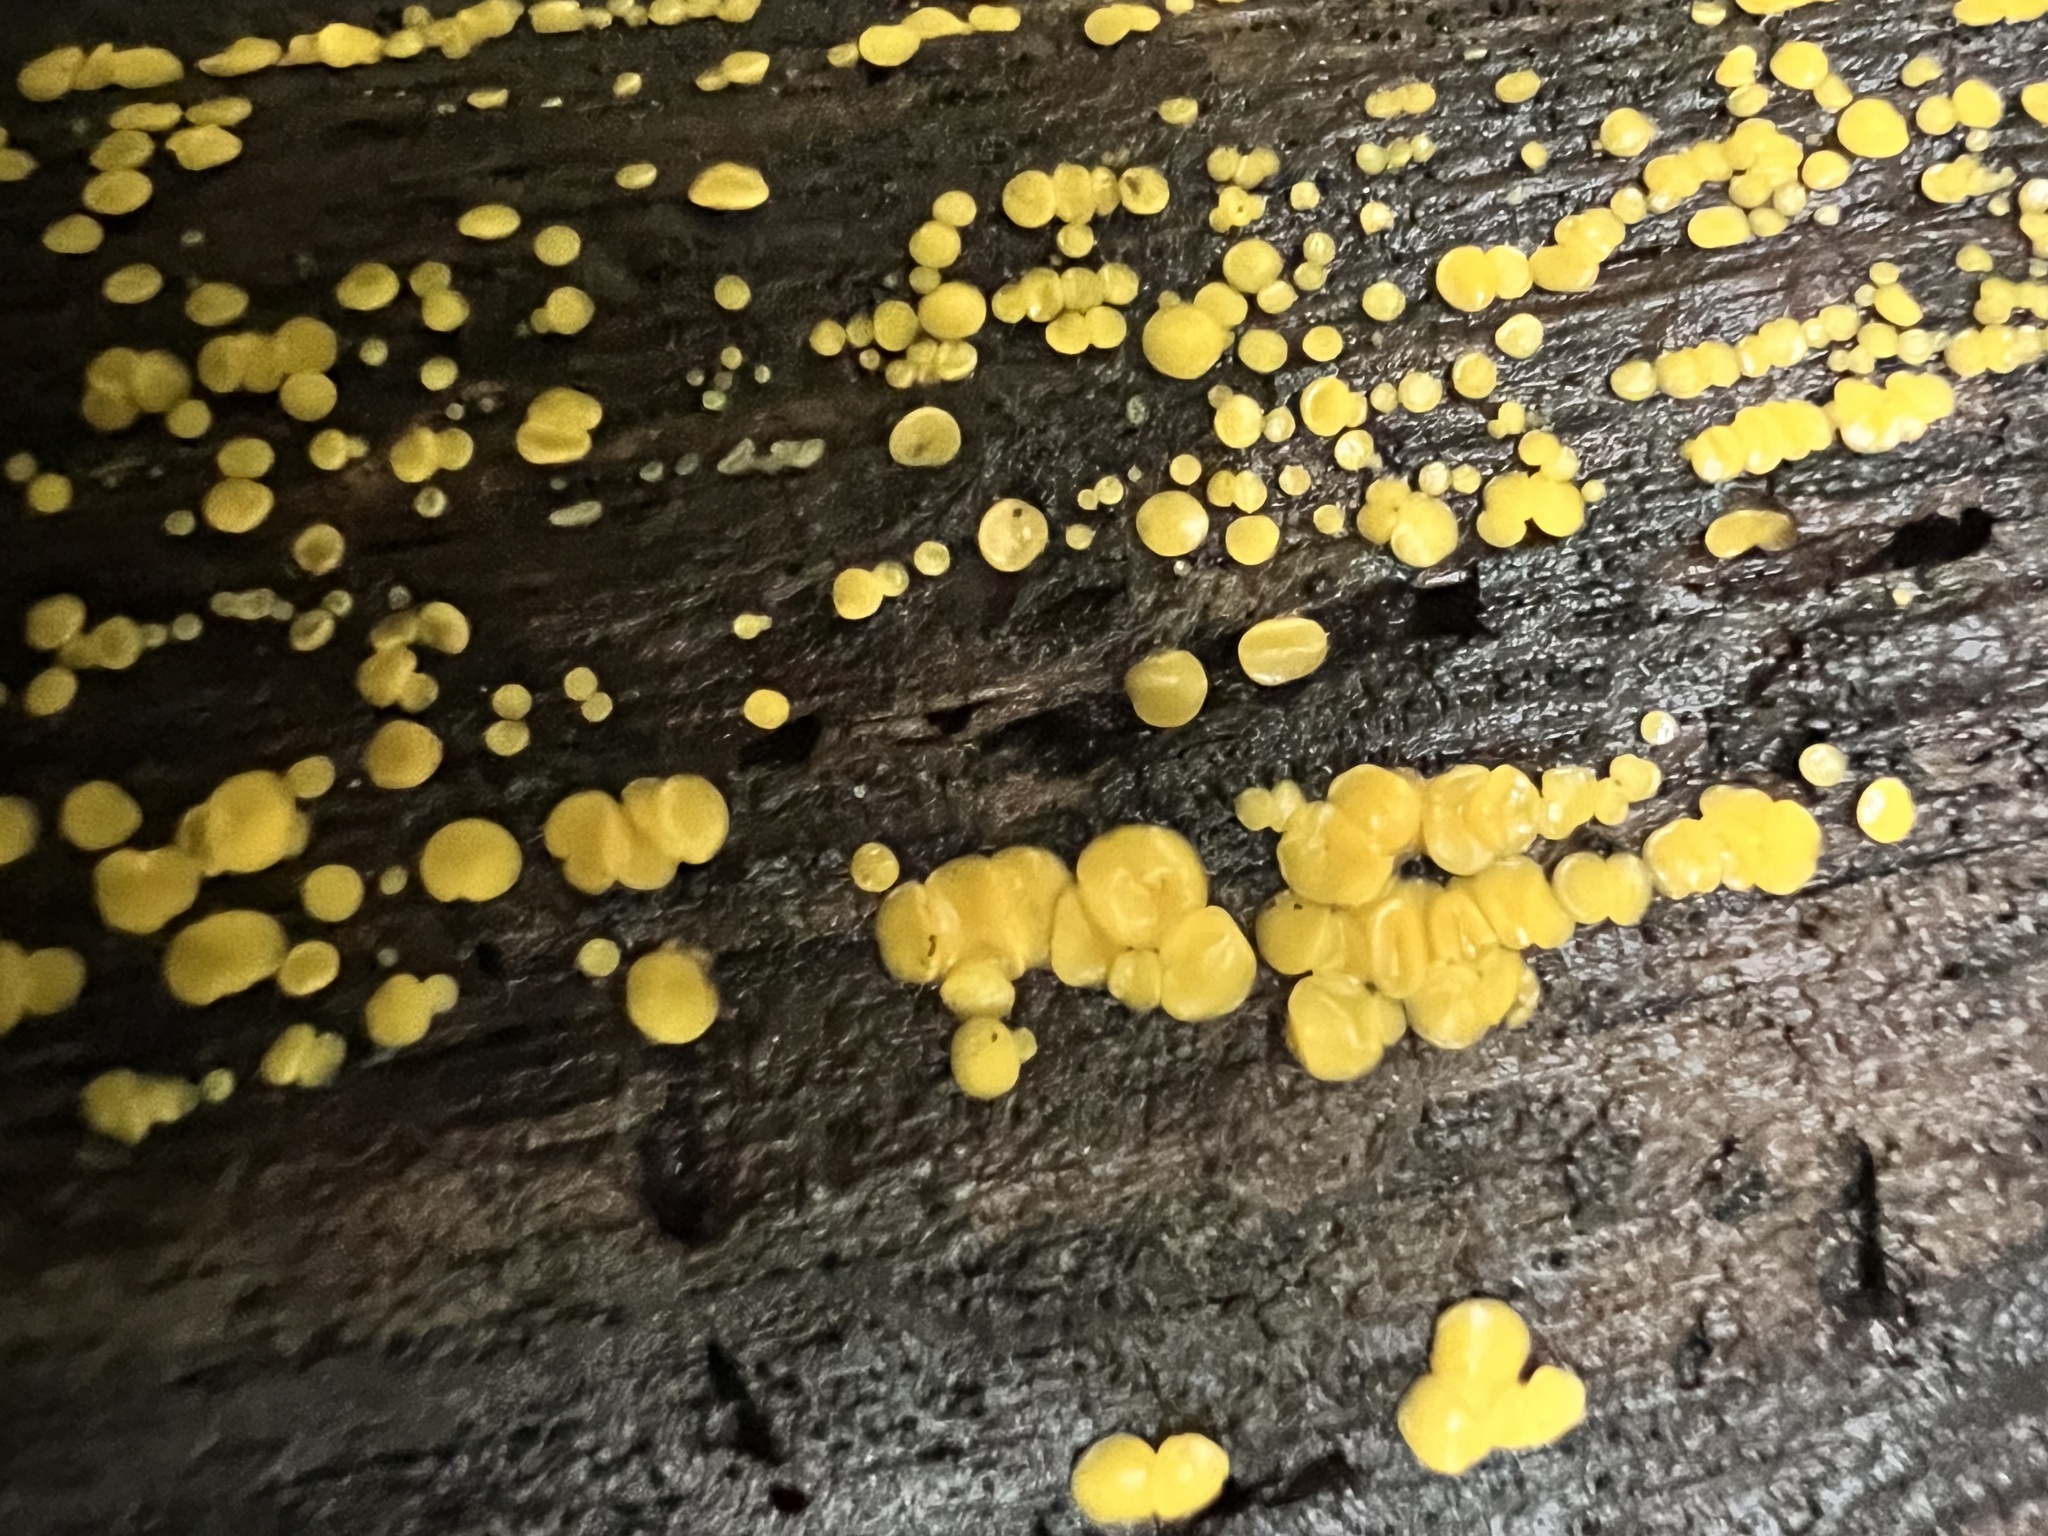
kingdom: Fungi
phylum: Ascomycota
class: Leotiomycetes
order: Helotiales
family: Pezizellaceae
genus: Calycina
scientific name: Calycina citrina
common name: Yellow fairy cups
